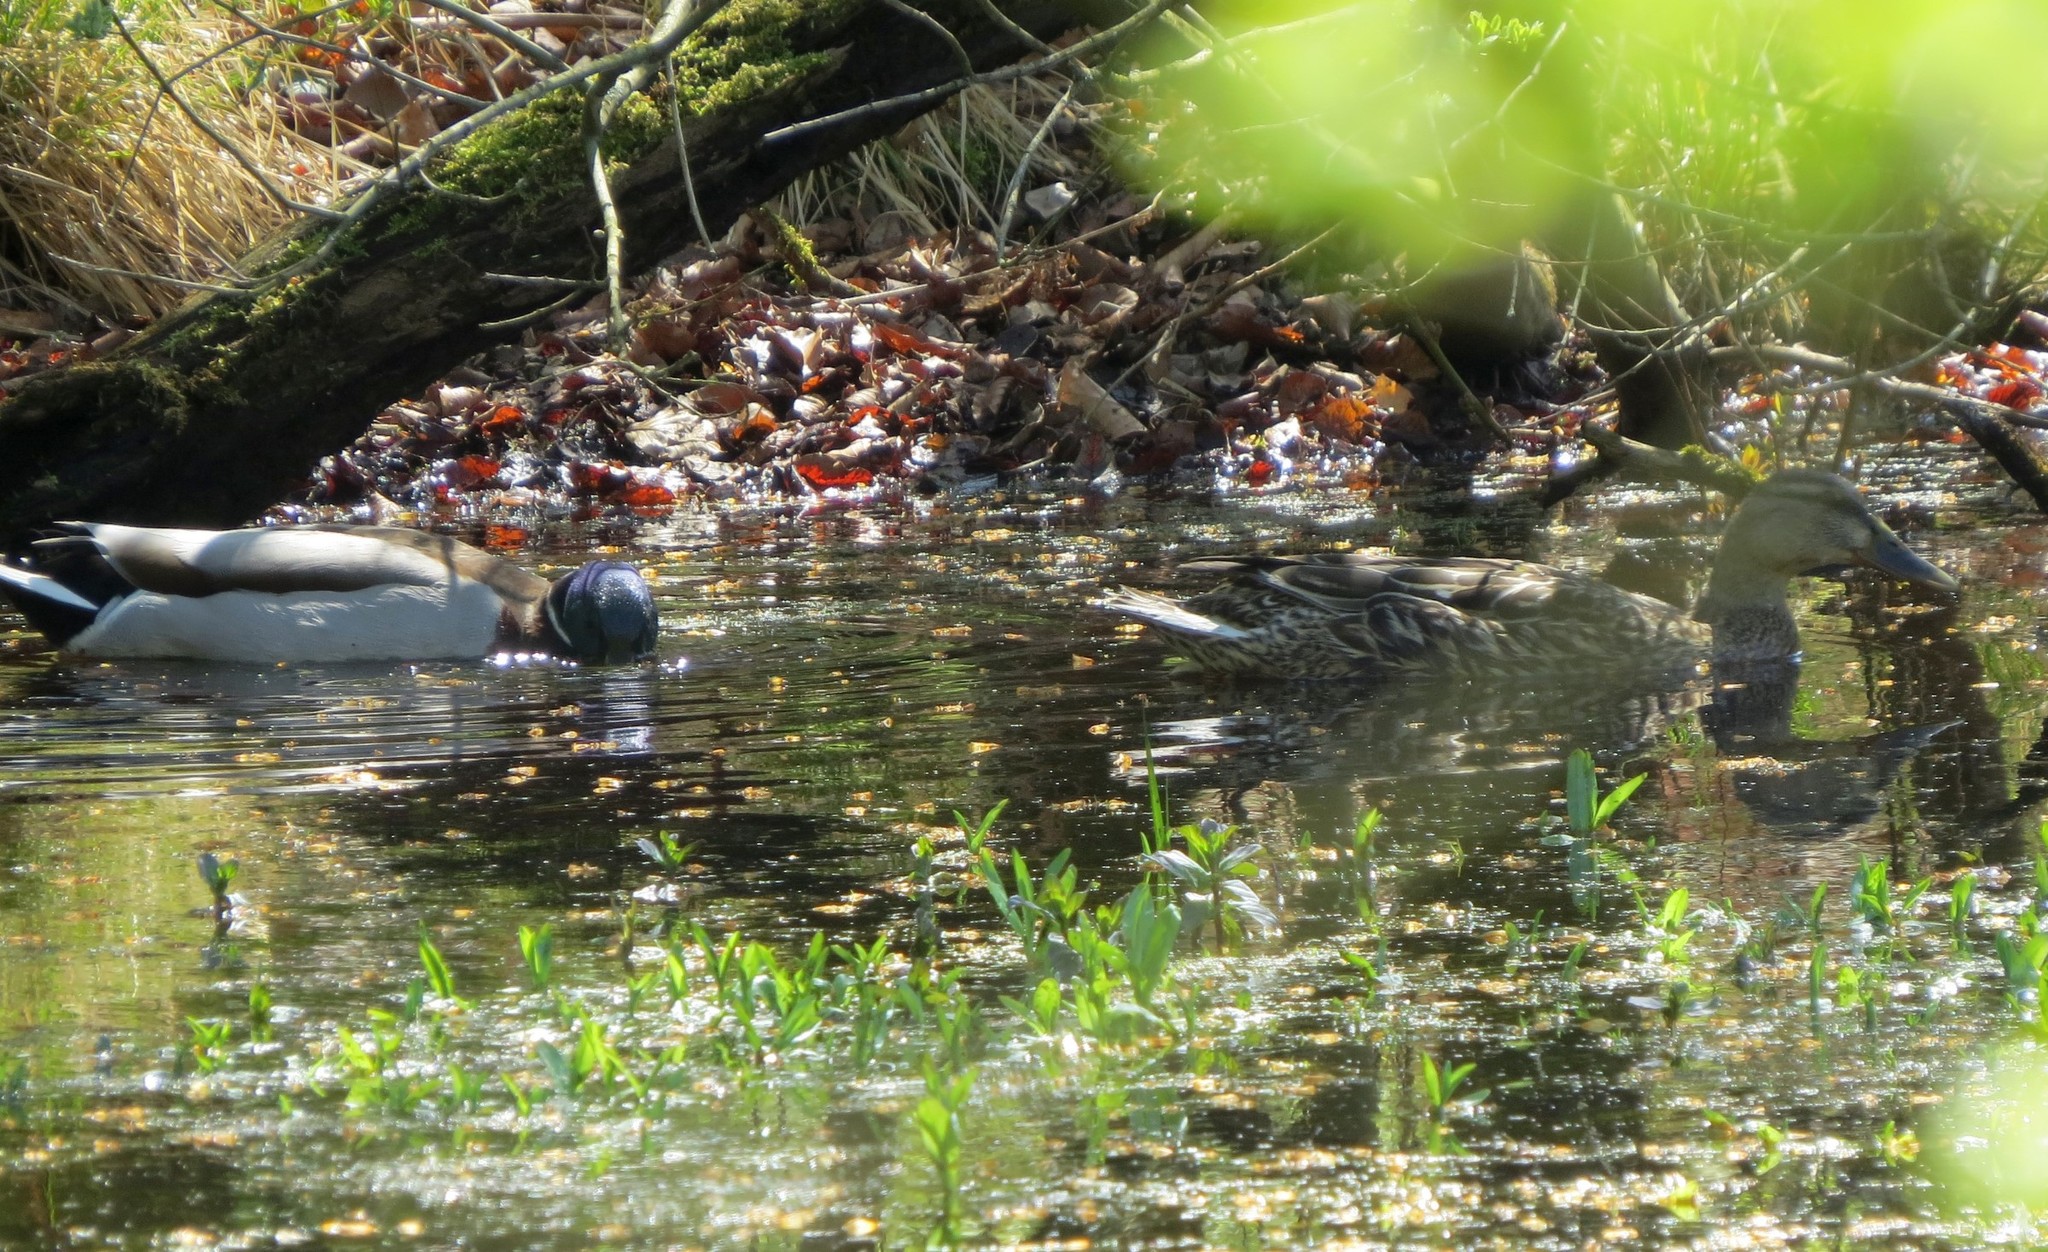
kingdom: Animalia
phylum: Chordata
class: Aves
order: Anseriformes
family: Anatidae
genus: Anas
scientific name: Anas platyrhynchos
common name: Mallard
